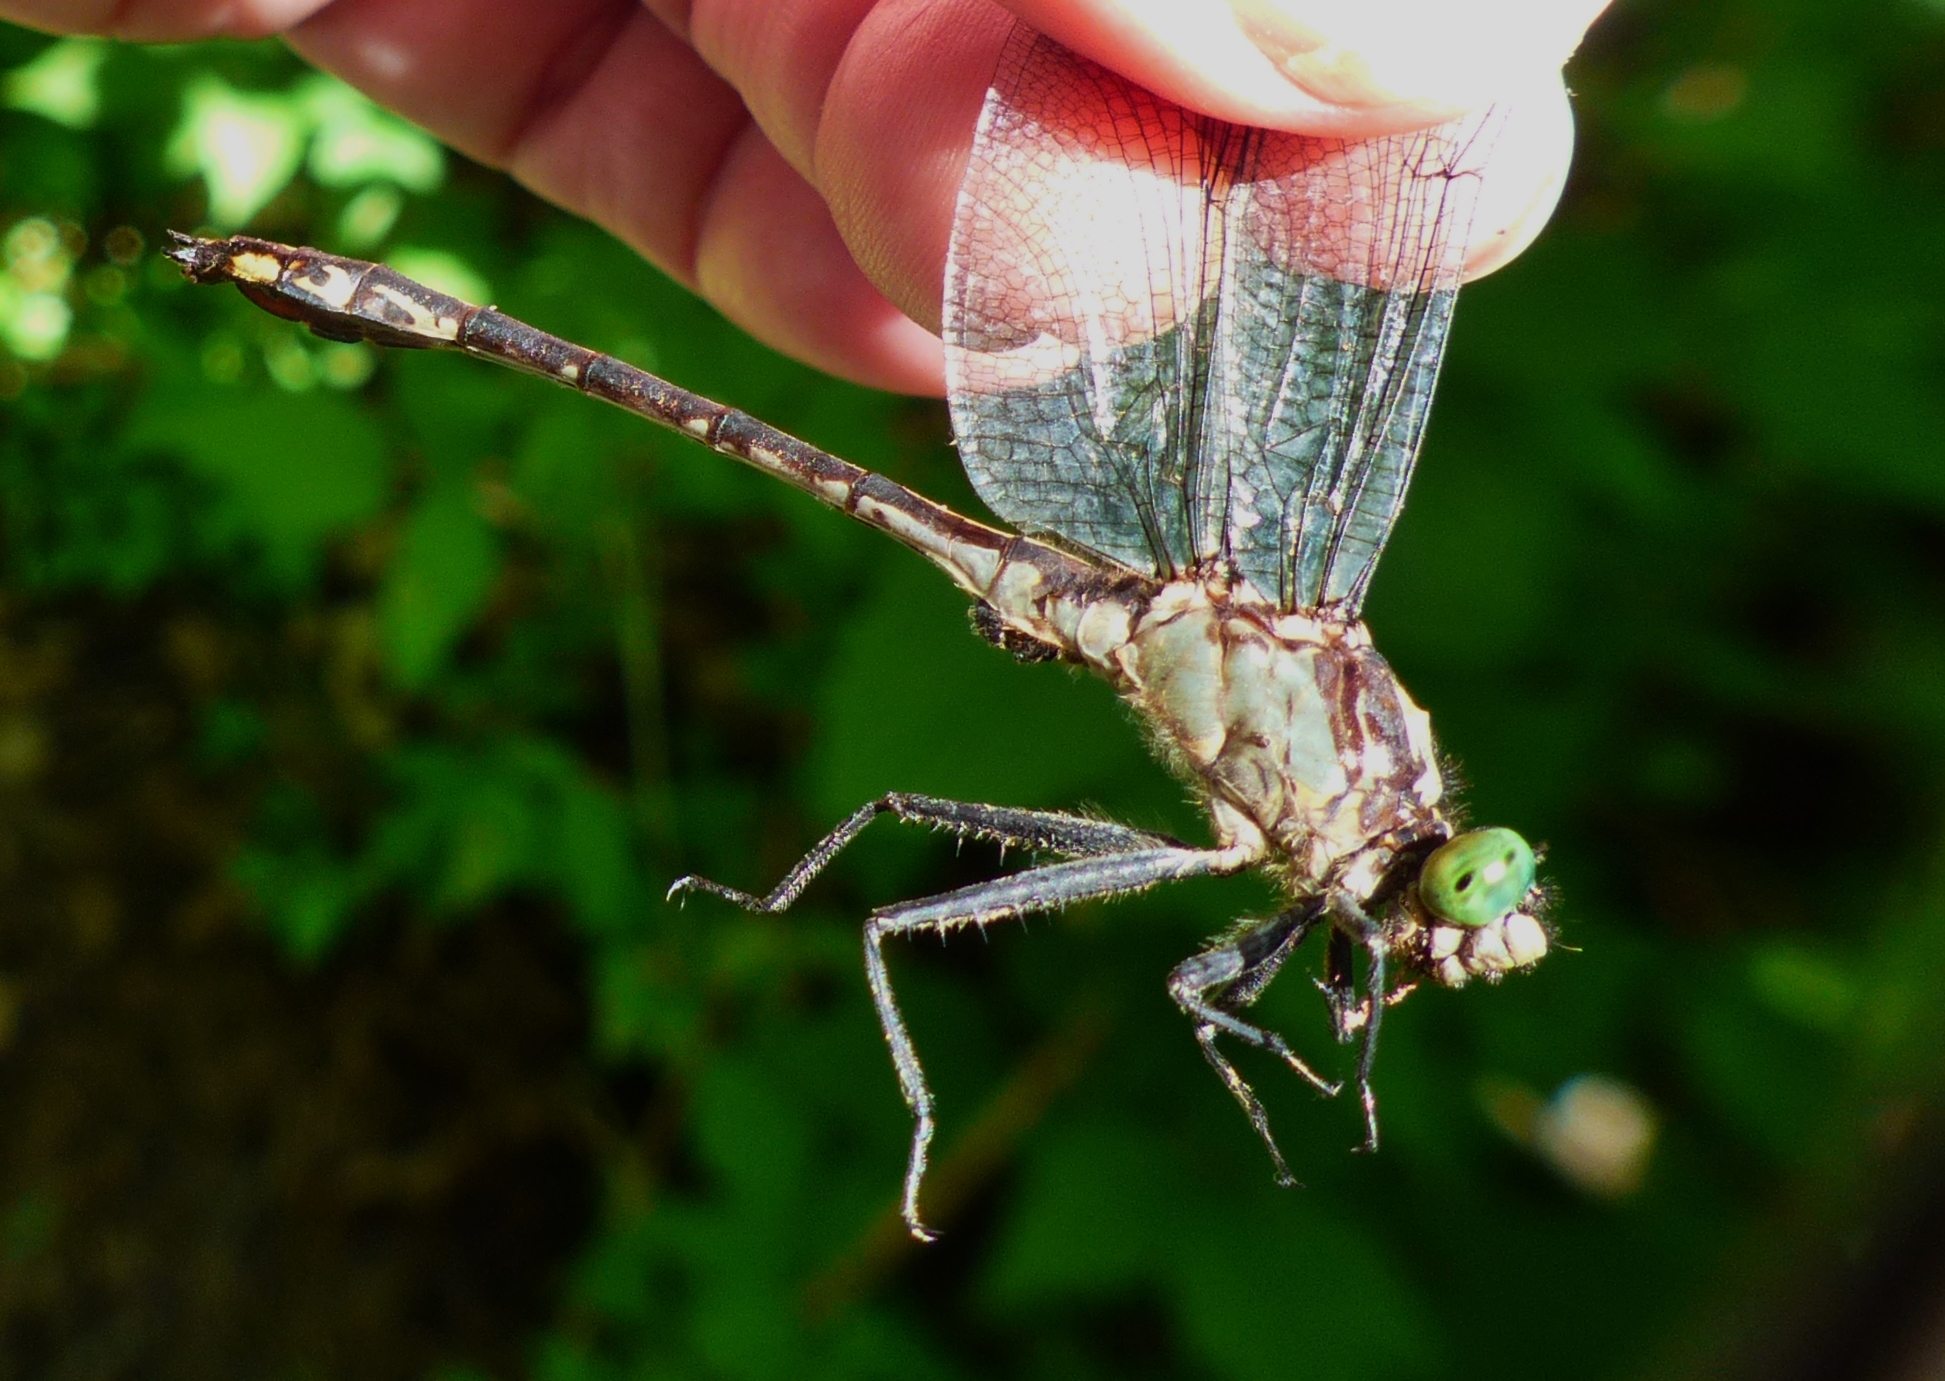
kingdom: Animalia
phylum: Arthropoda
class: Insecta
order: Odonata
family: Gomphidae
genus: Dromogomphus
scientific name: Dromogomphus spinosus
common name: Black-shouldered spinyleg
